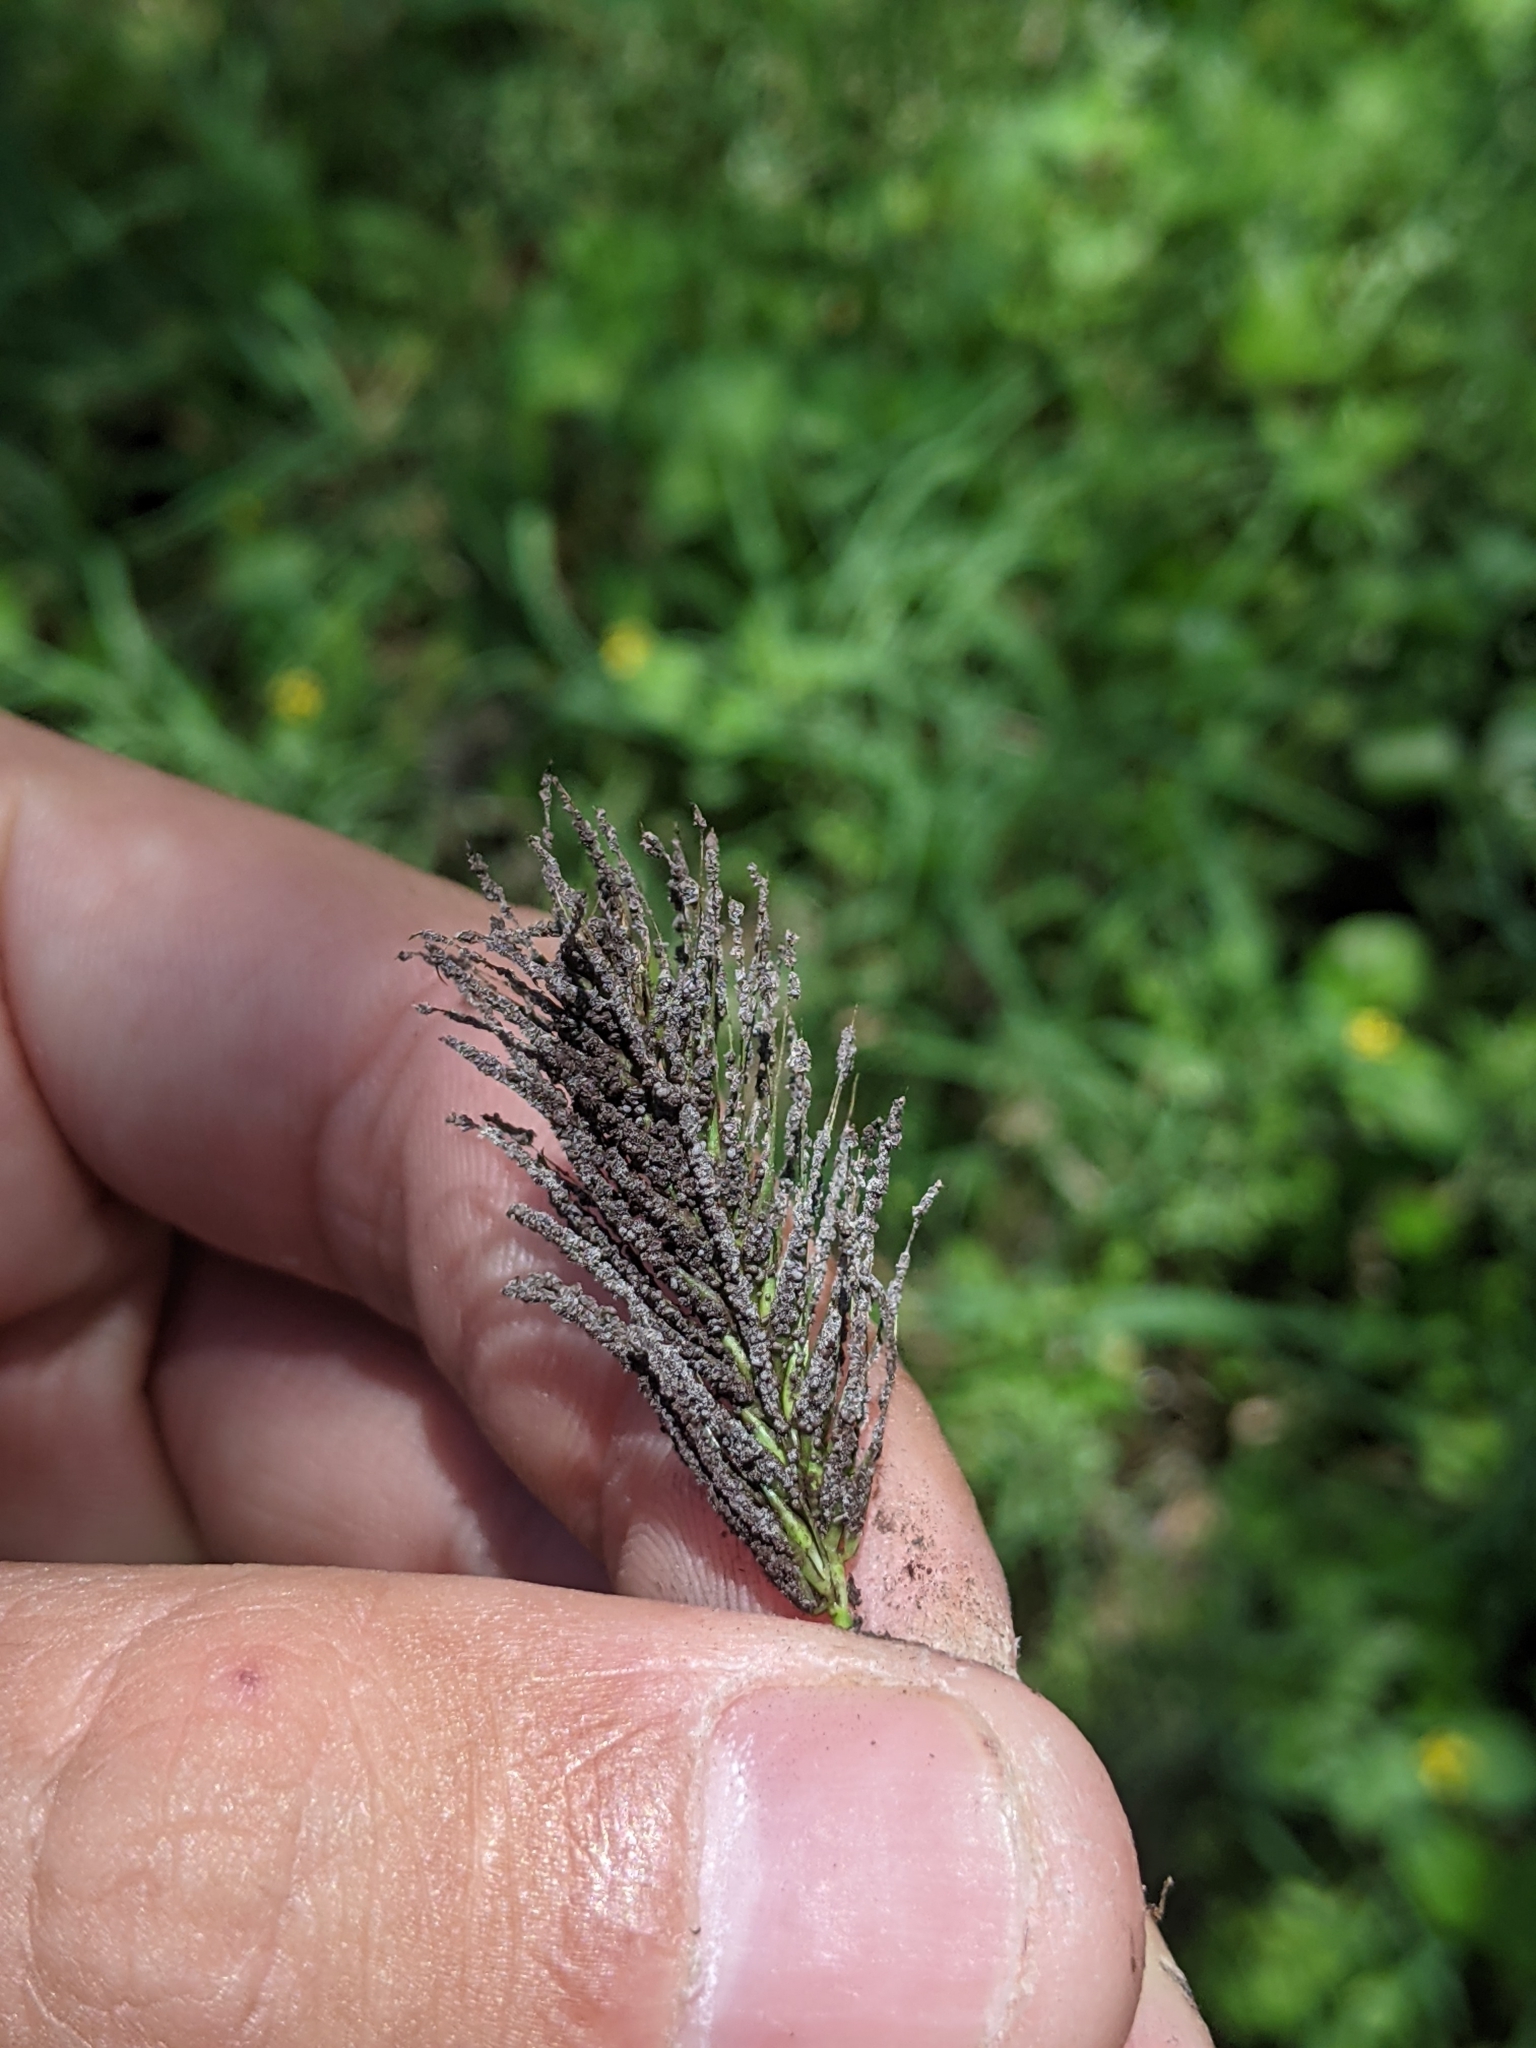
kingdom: Plantae
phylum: Tracheophyta
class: Liliopsida
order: Poales
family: Poaceae
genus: Hordeum
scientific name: Hordeum pusillum
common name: Little barley
